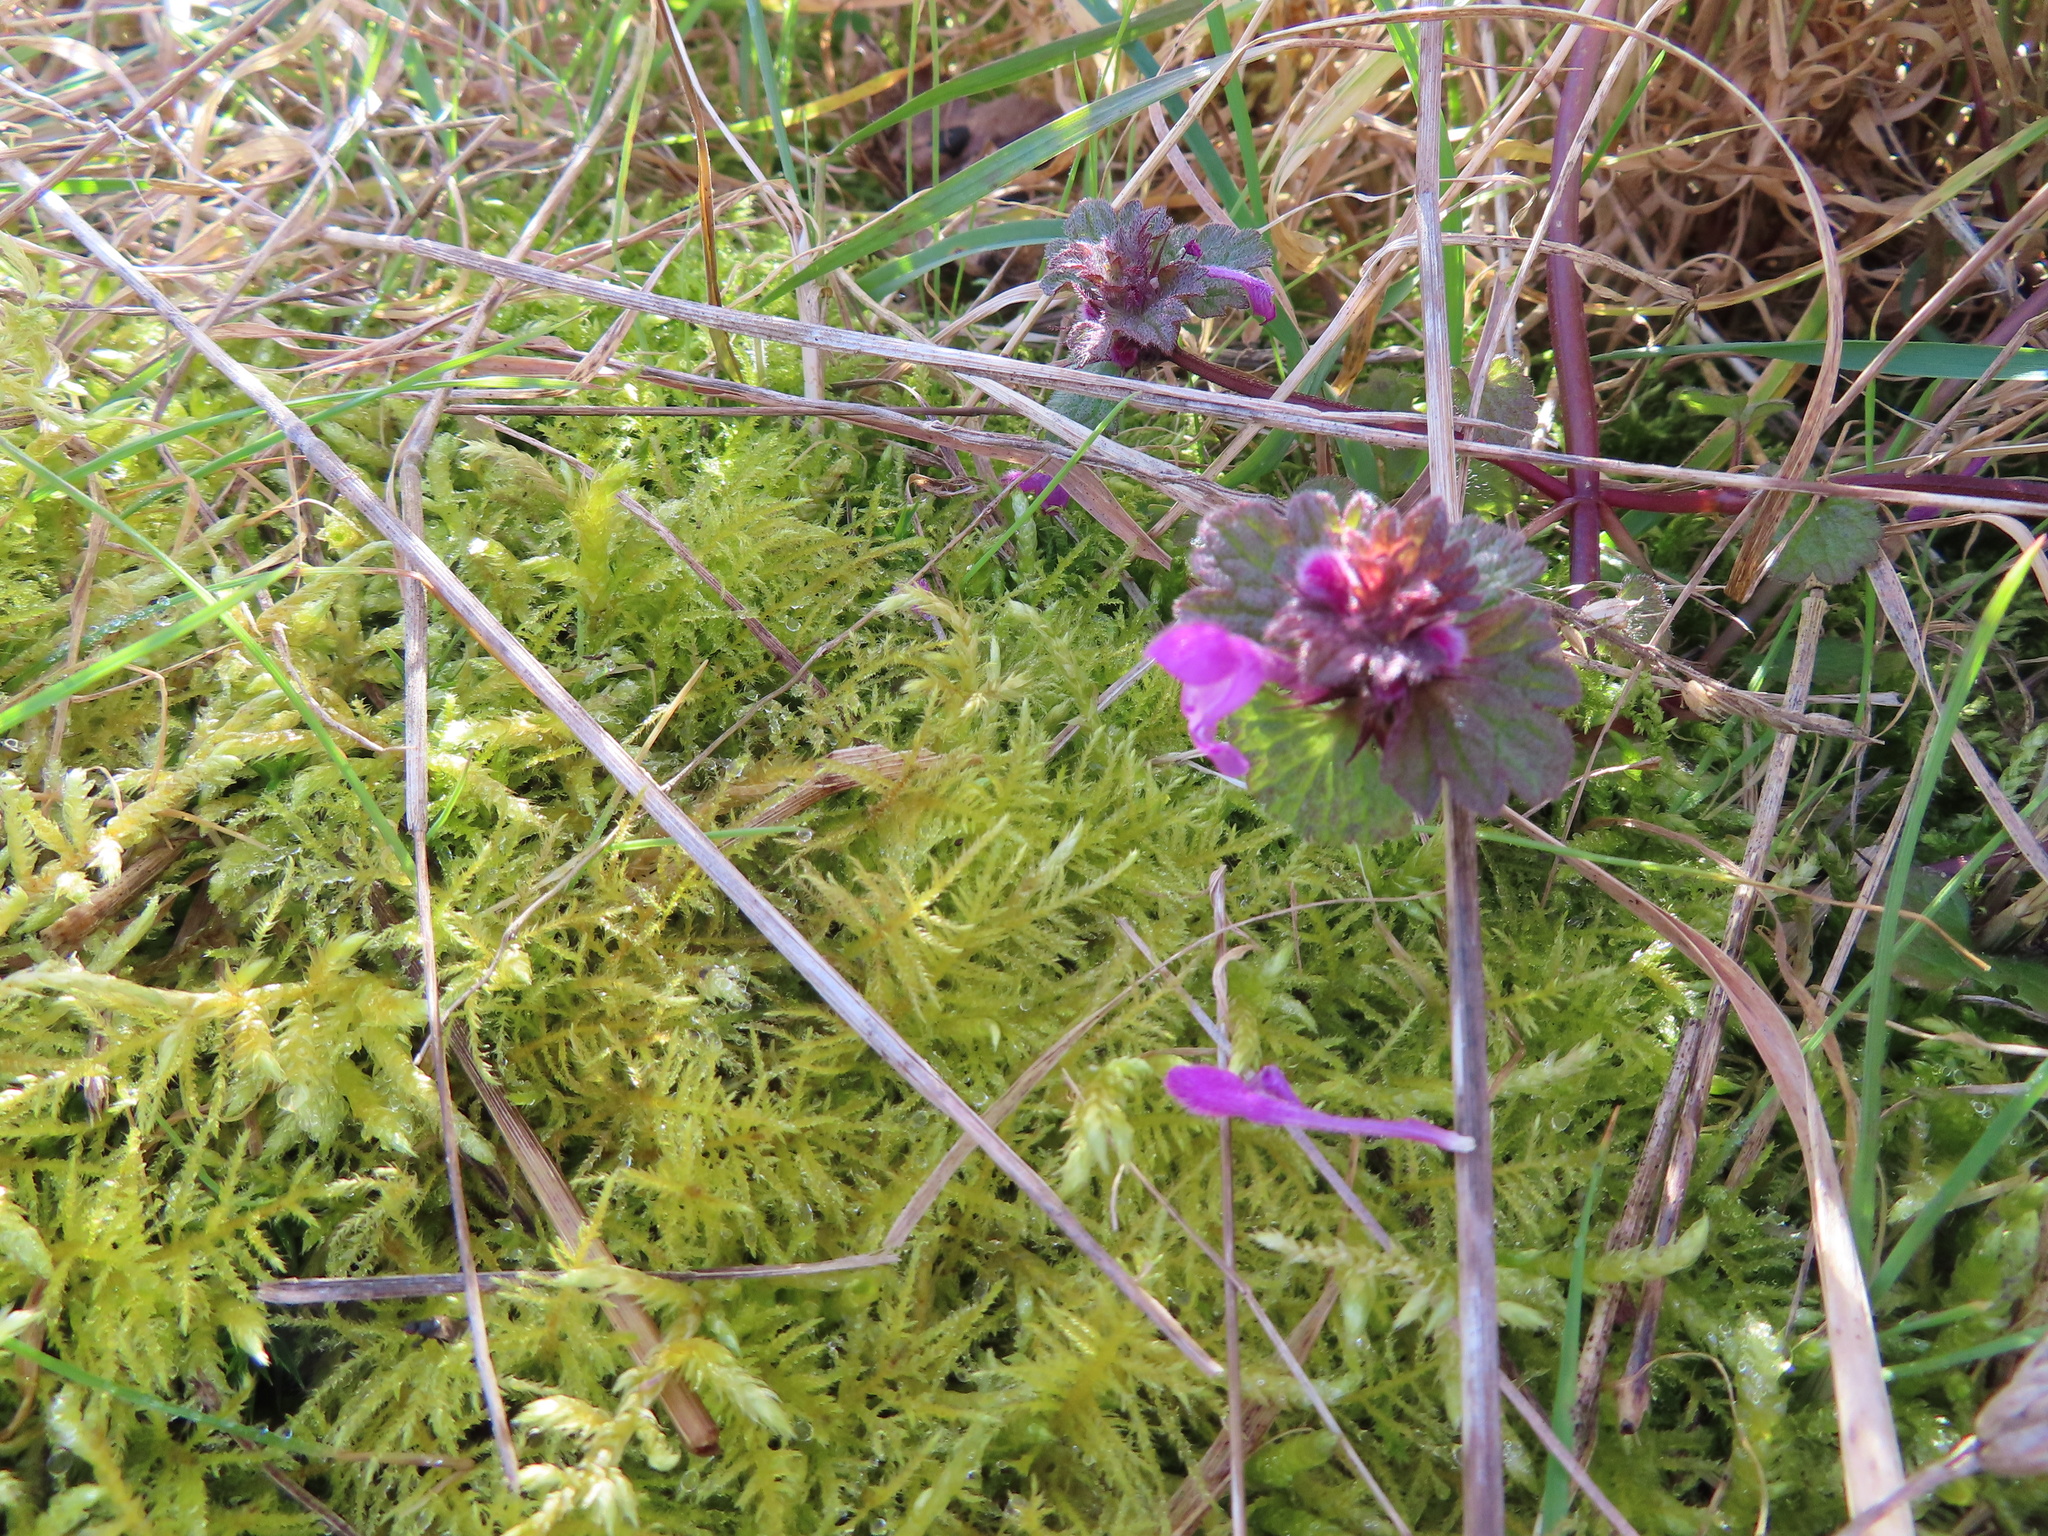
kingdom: Plantae
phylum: Tracheophyta
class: Magnoliopsida
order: Lamiales
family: Lamiaceae
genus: Lamium
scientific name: Lamium hybridum
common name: Cut-leaved dead-nettle
